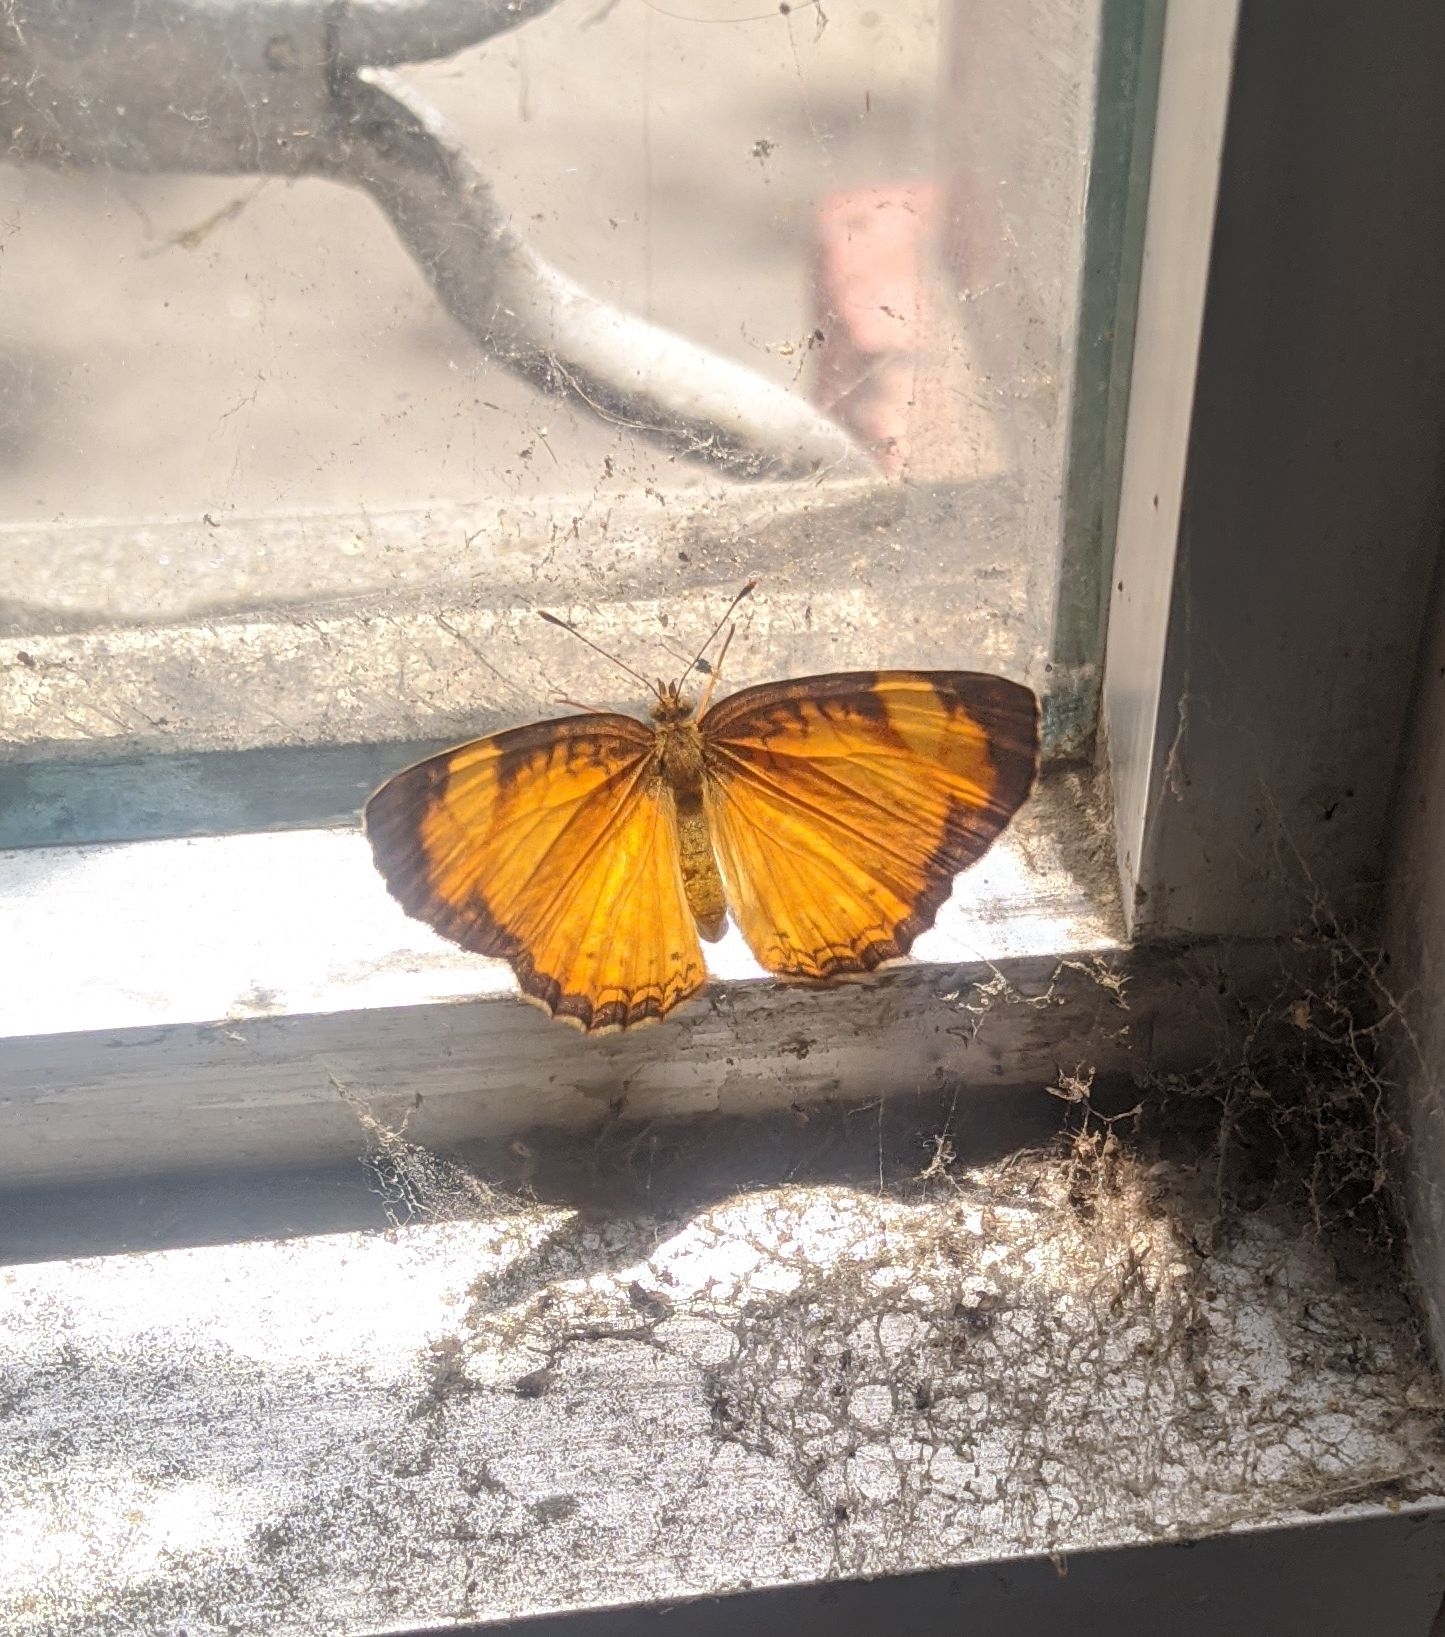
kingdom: Animalia
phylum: Arthropoda
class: Insecta
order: Lepidoptera
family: Nymphalidae
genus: Tegosa
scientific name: Tegosa anieta
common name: Black-bordered crescent
